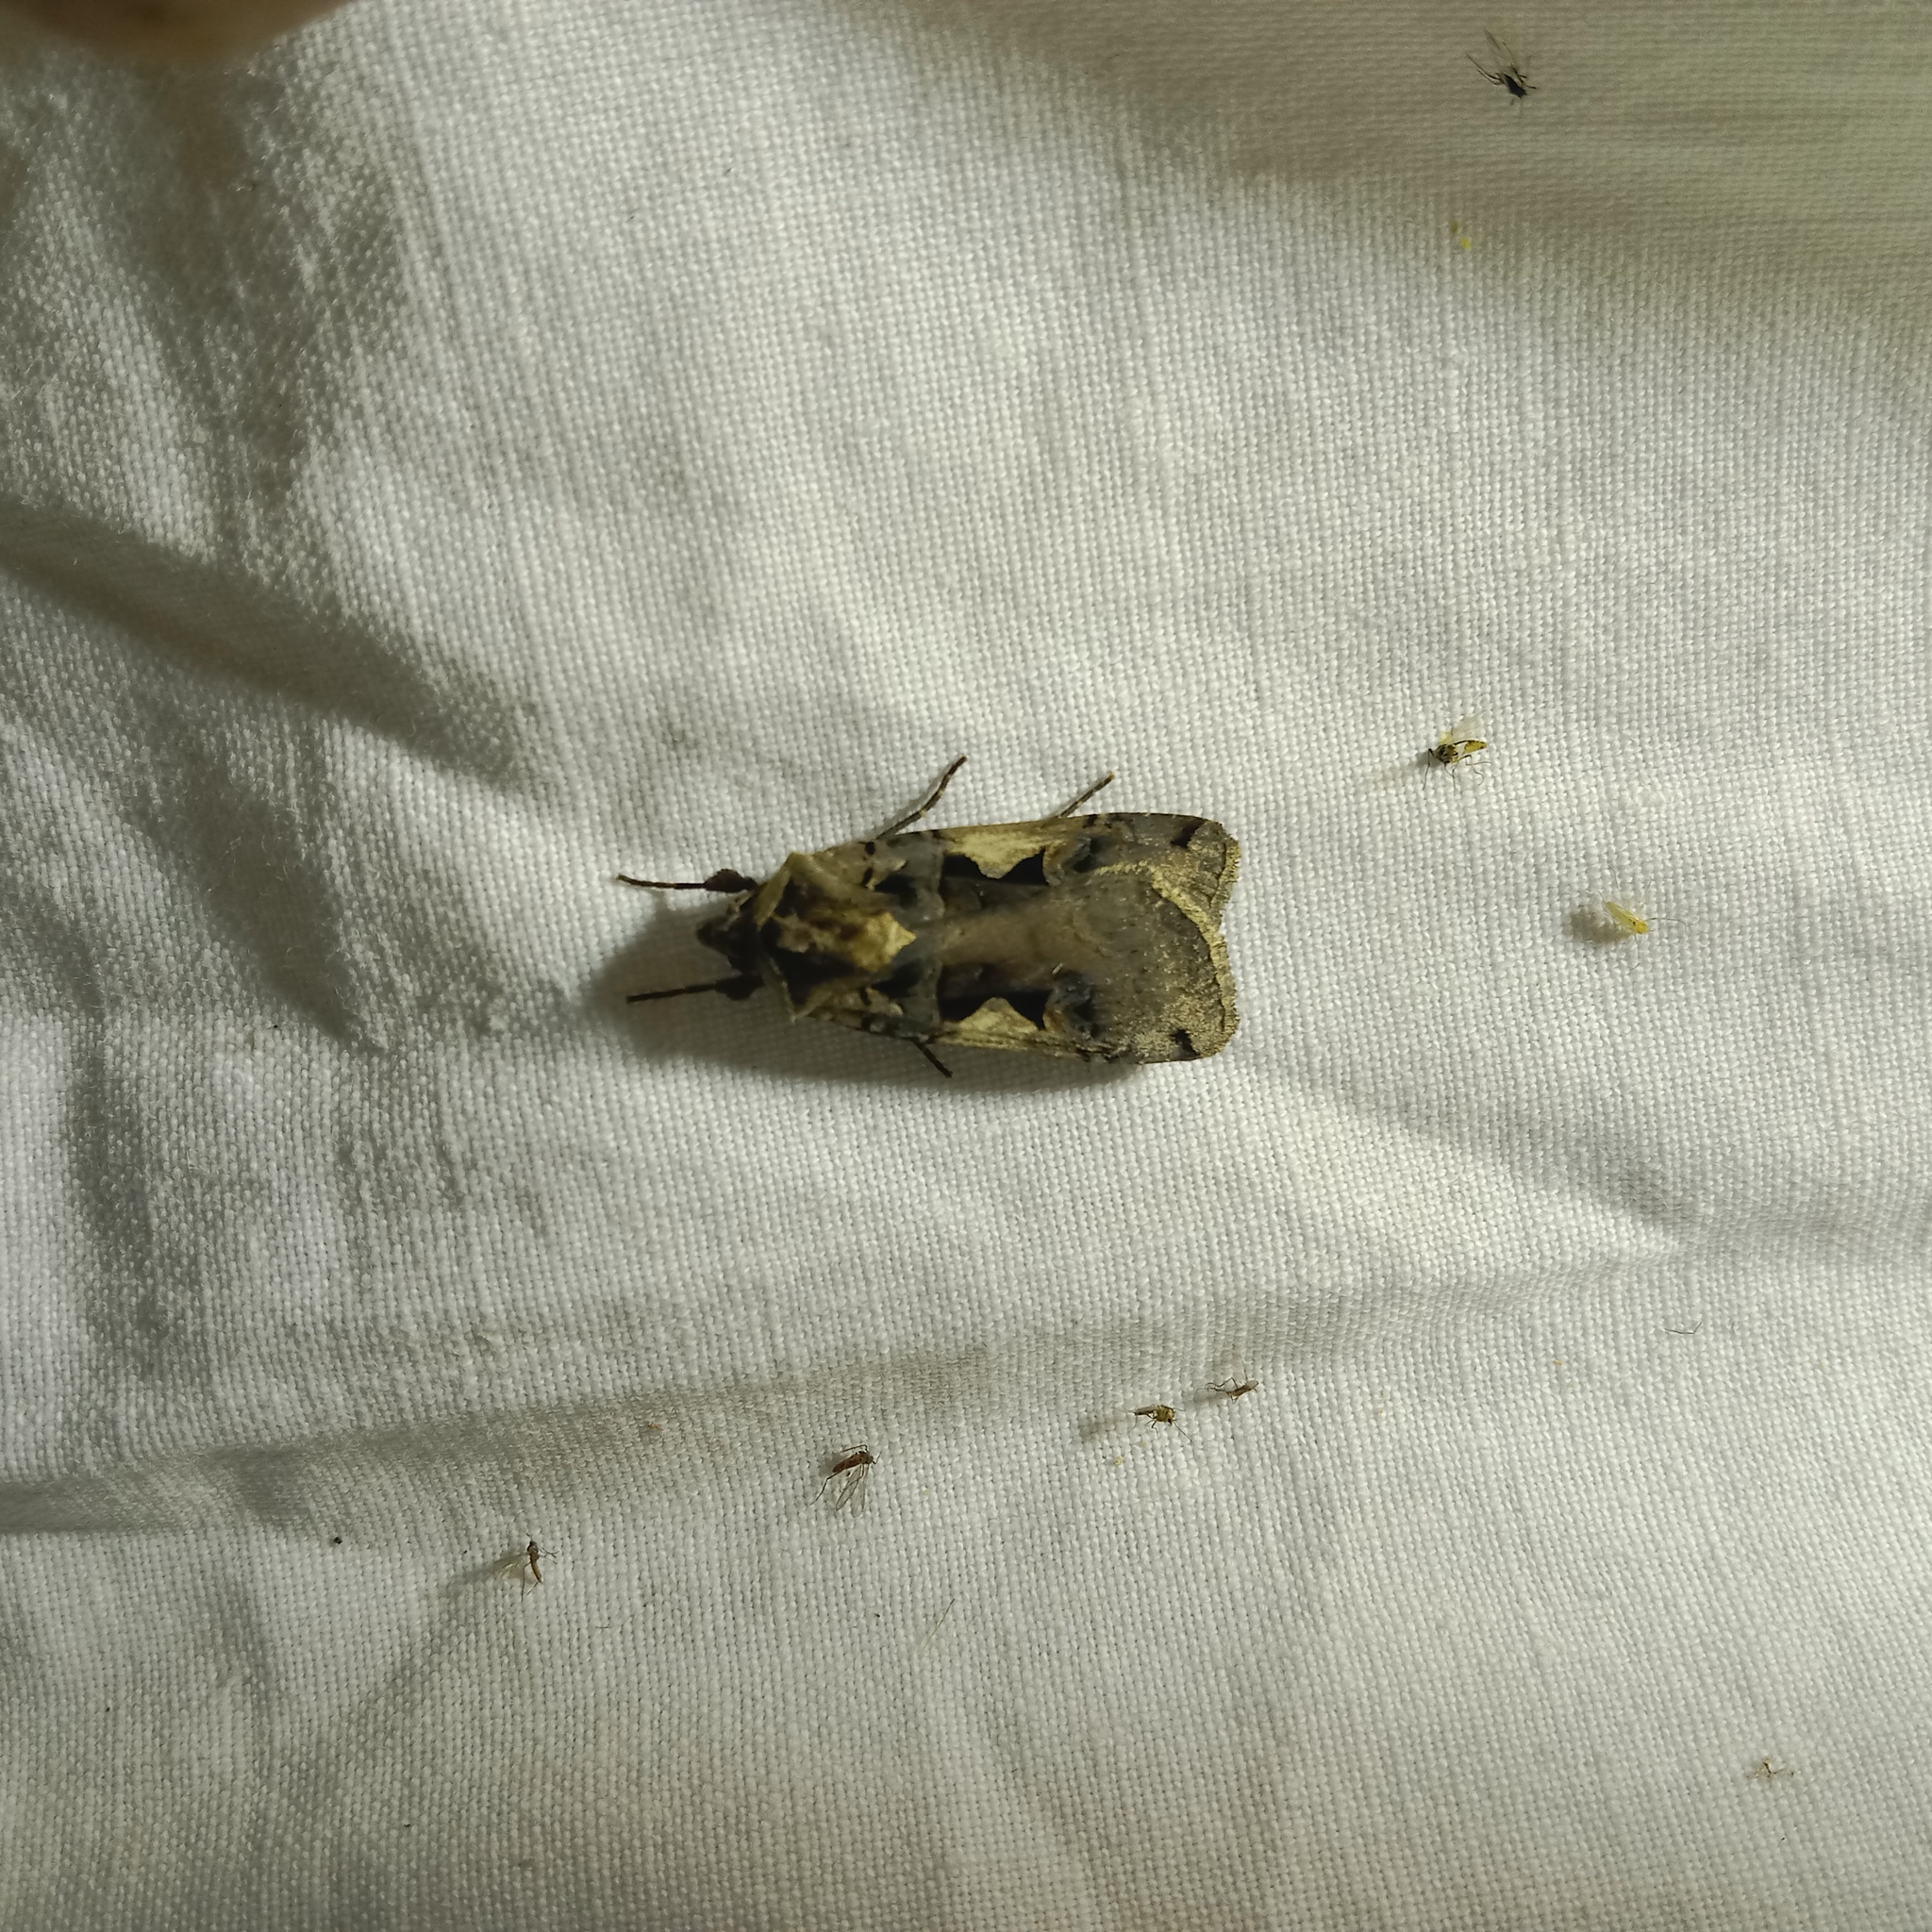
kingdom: Animalia
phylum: Arthropoda
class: Insecta
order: Lepidoptera
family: Noctuidae
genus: Xestia
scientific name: Xestia c-nigrum
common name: Setaceous hebrew character
